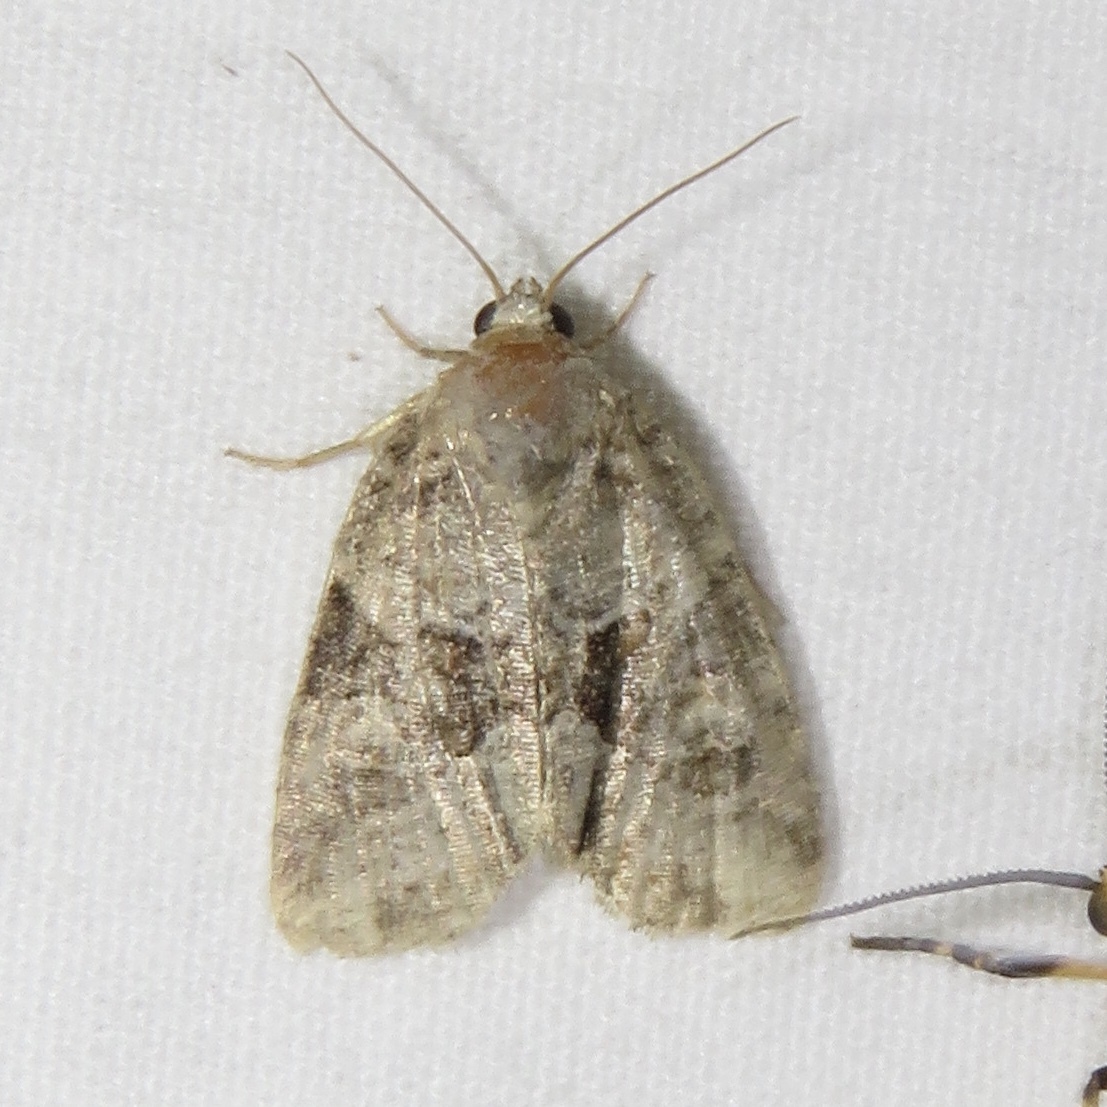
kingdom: Animalia
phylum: Arthropoda
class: Insecta
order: Lepidoptera
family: Noctuidae
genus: Neoligia
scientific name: Neoligia exhausta
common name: Exhausted brocade
